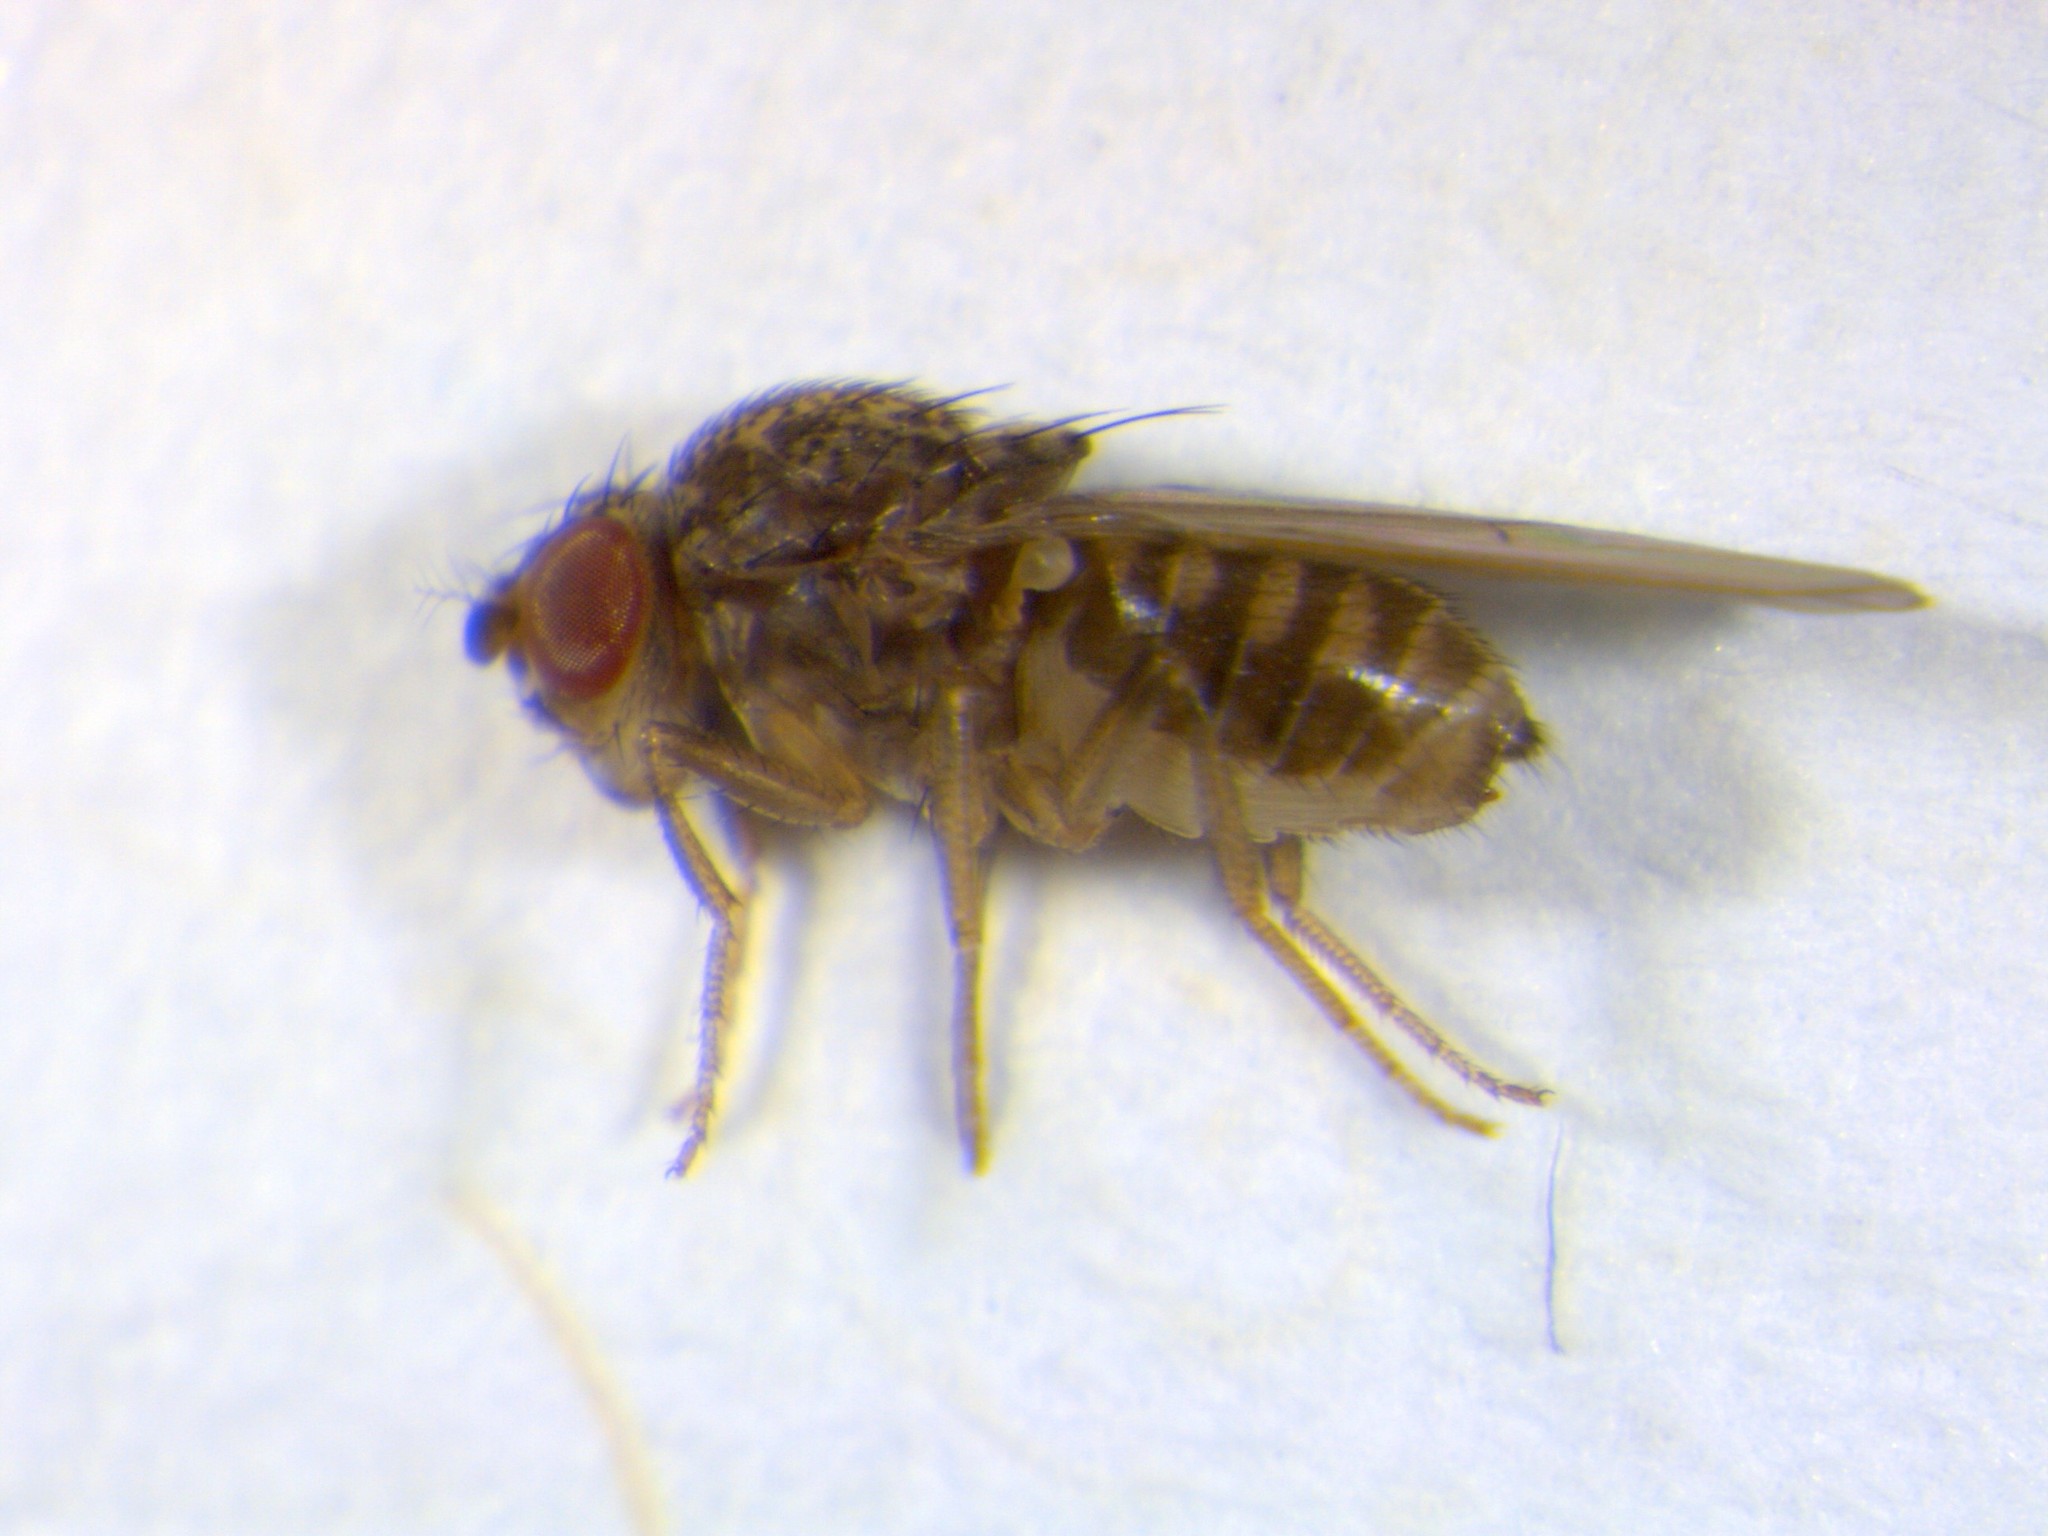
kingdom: Animalia
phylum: Arthropoda
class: Insecta
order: Diptera
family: Drosophilidae
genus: Drosophila
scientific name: Drosophila hydei
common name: Pomace fly
